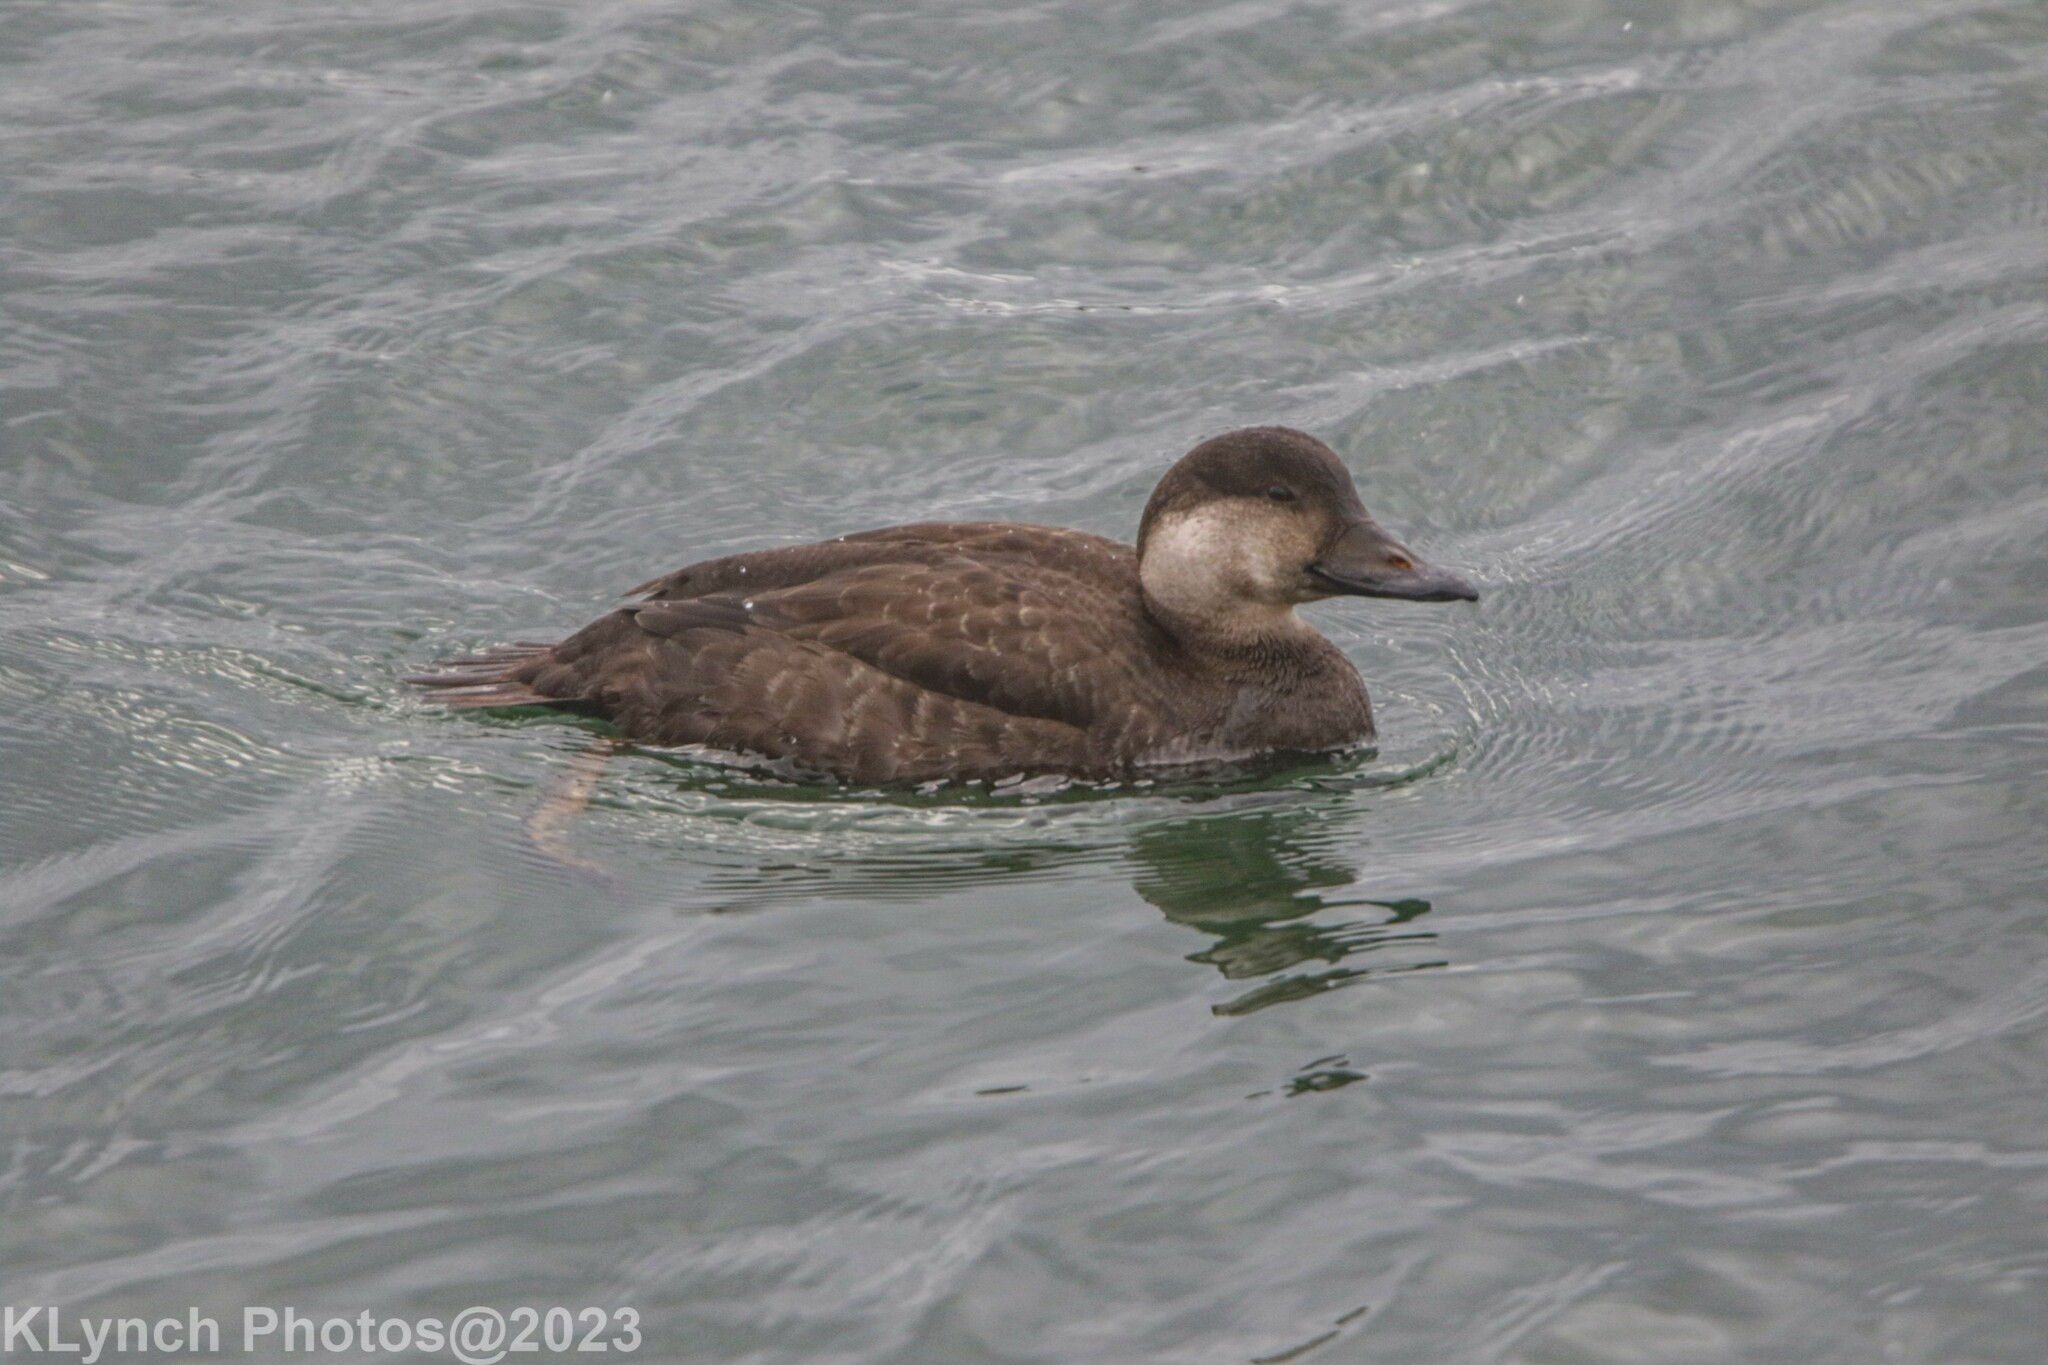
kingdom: Animalia
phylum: Chordata
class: Aves
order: Anseriformes
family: Anatidae
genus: Melanitta
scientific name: Melanitta americana
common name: Black scoter
